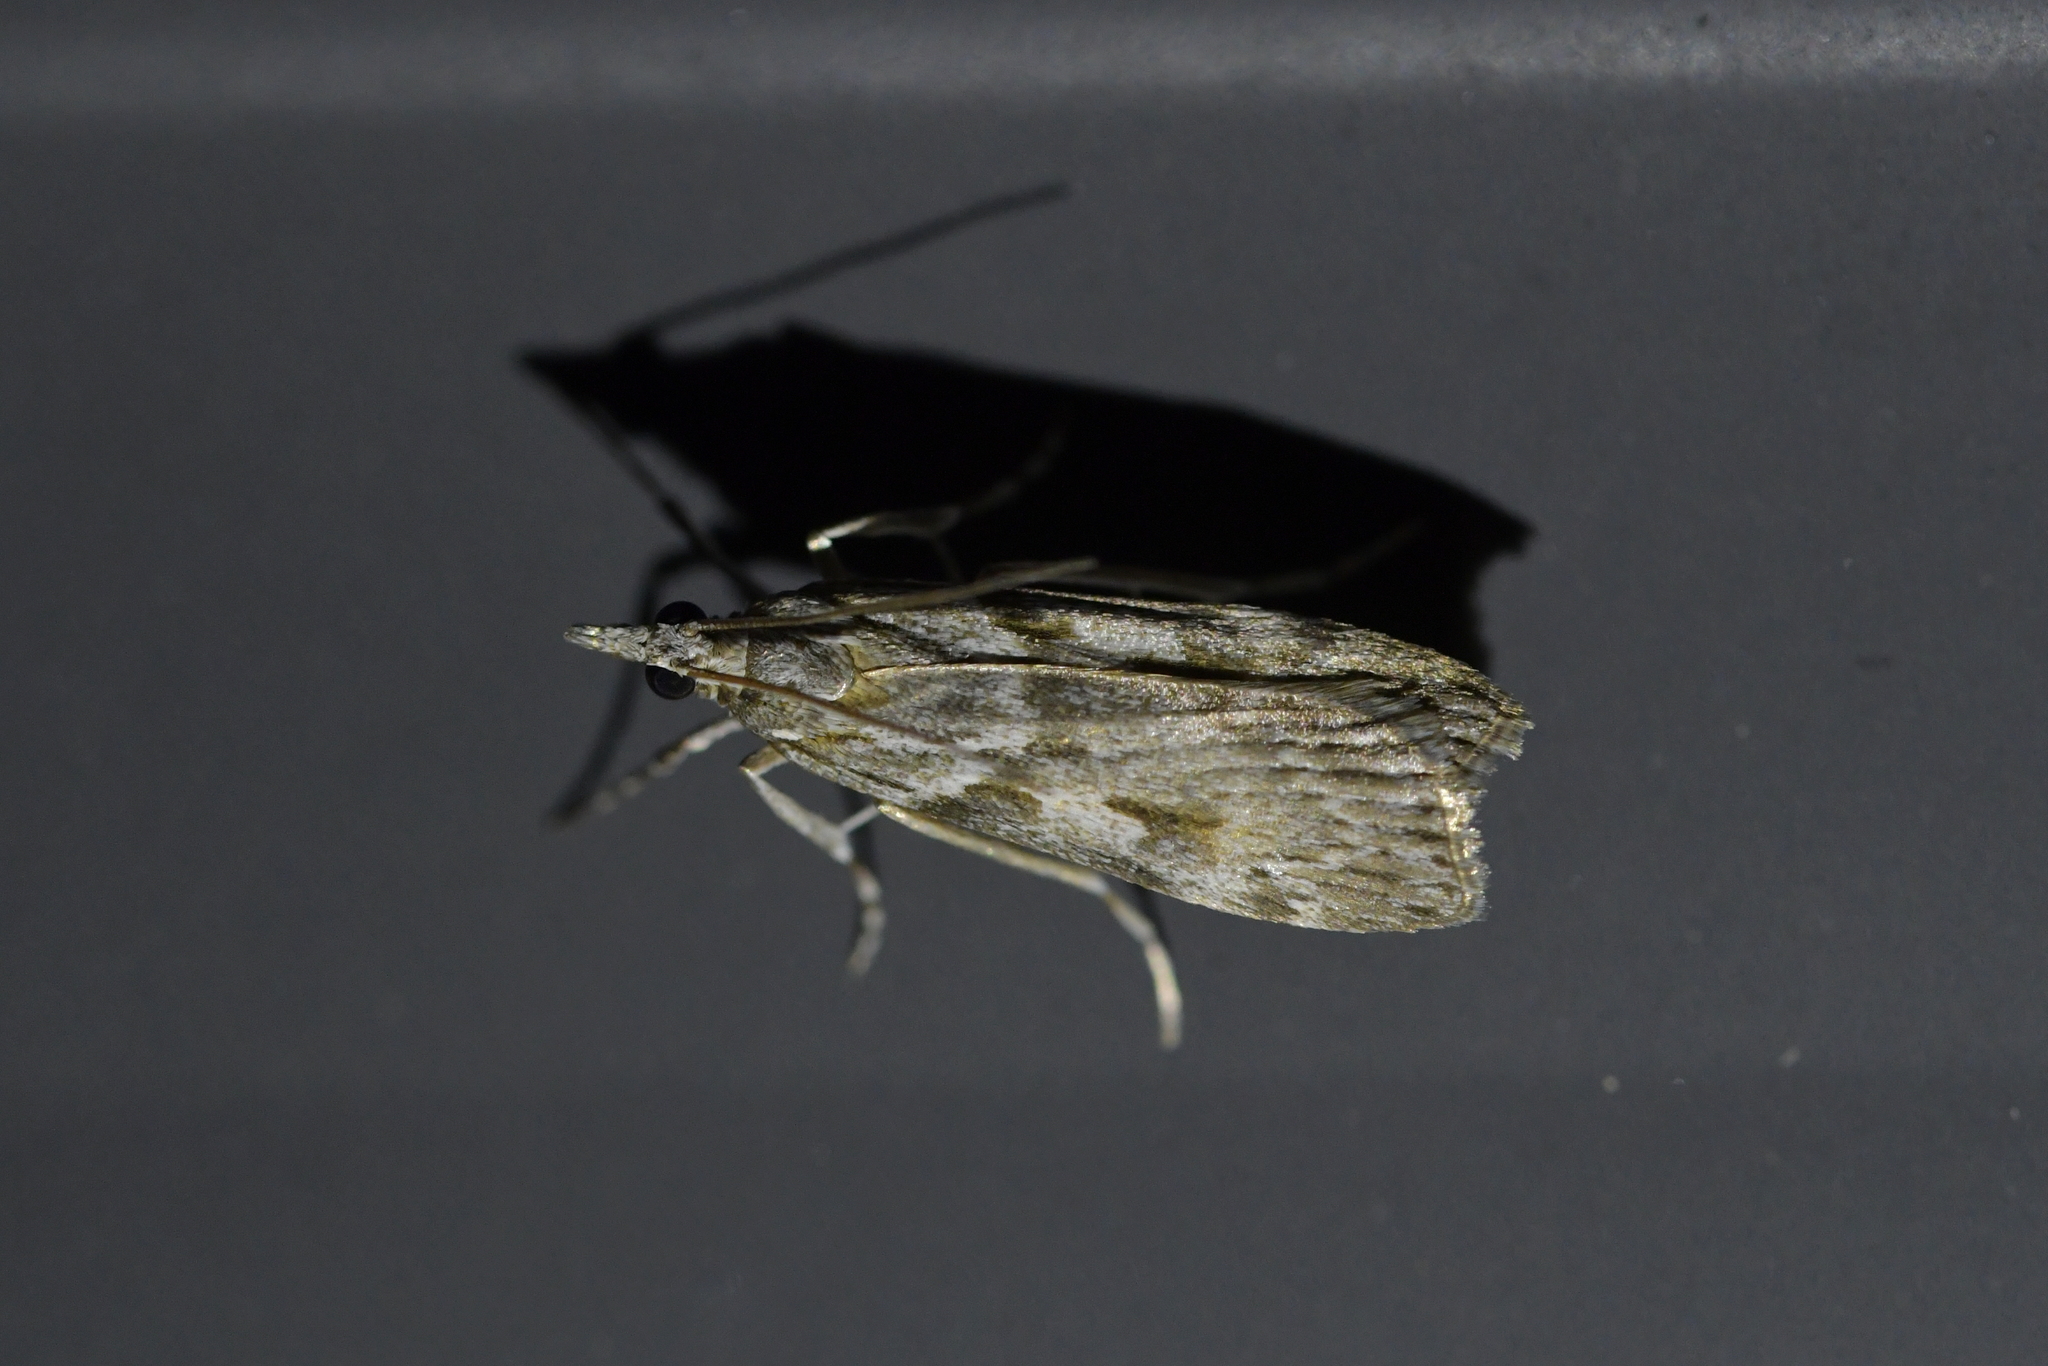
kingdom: Animalia
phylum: Arthropoda
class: Insecta
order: Lepidoptera
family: Crambidae
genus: Scoparia
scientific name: Scoparia halopis
